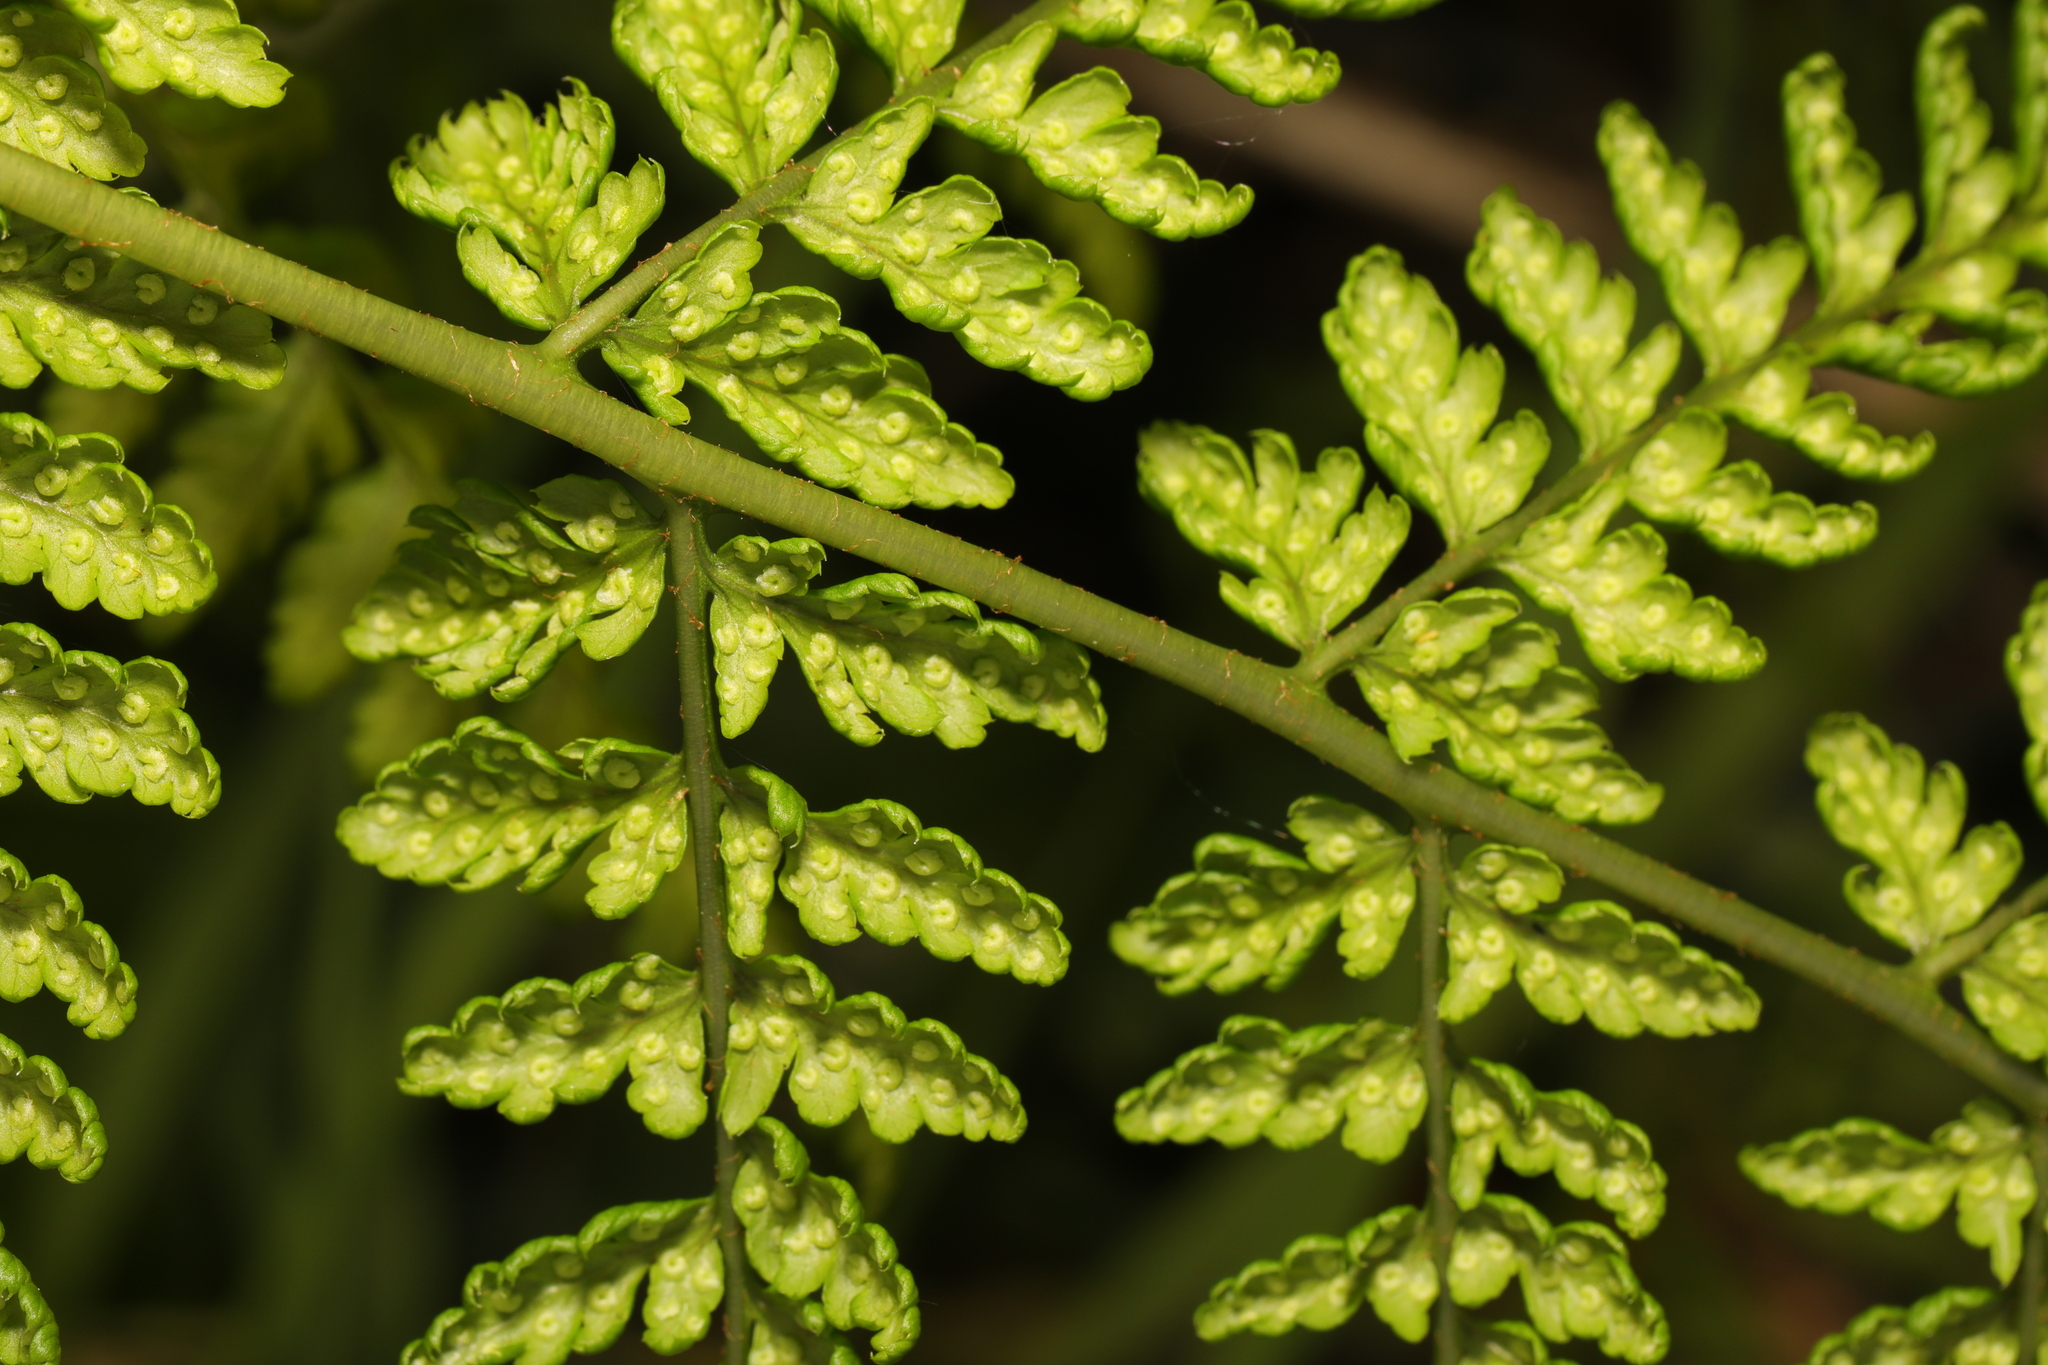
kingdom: Plantae
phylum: Tracheophyta
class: Polypodiopsida
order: Polypodiales
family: Dryopteridaceae
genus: Dryopteris
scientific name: Dryopteris dilatata
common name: Broad buckler-fern
